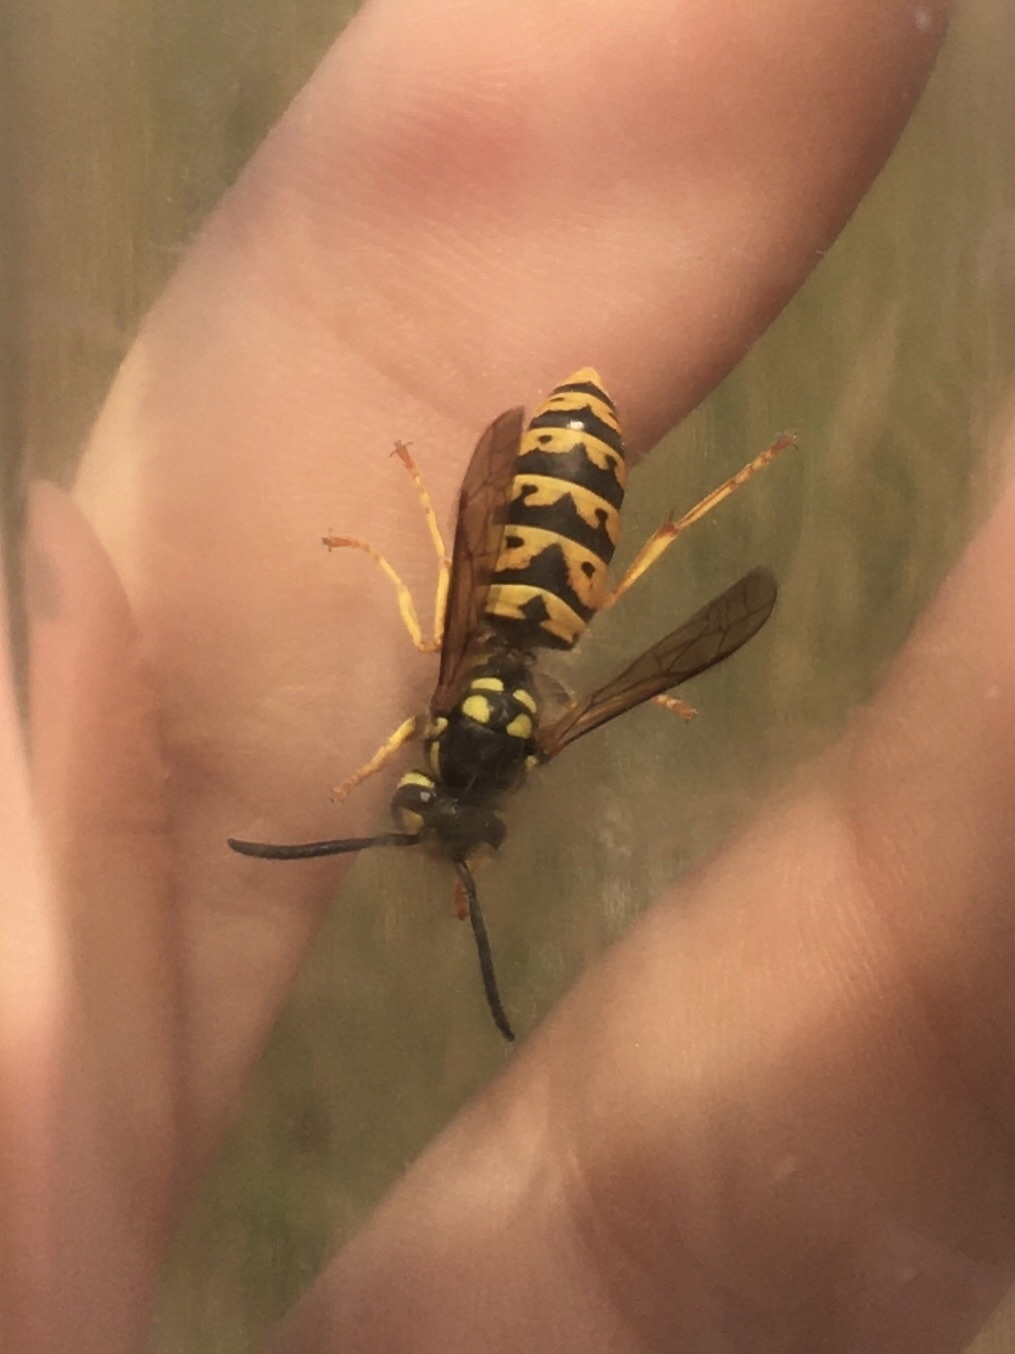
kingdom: Animalia
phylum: Arthropoda
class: Insecta
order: Hymenoptera
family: Vespidae
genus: Vespula
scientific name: Vespula germanica
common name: German wasp
